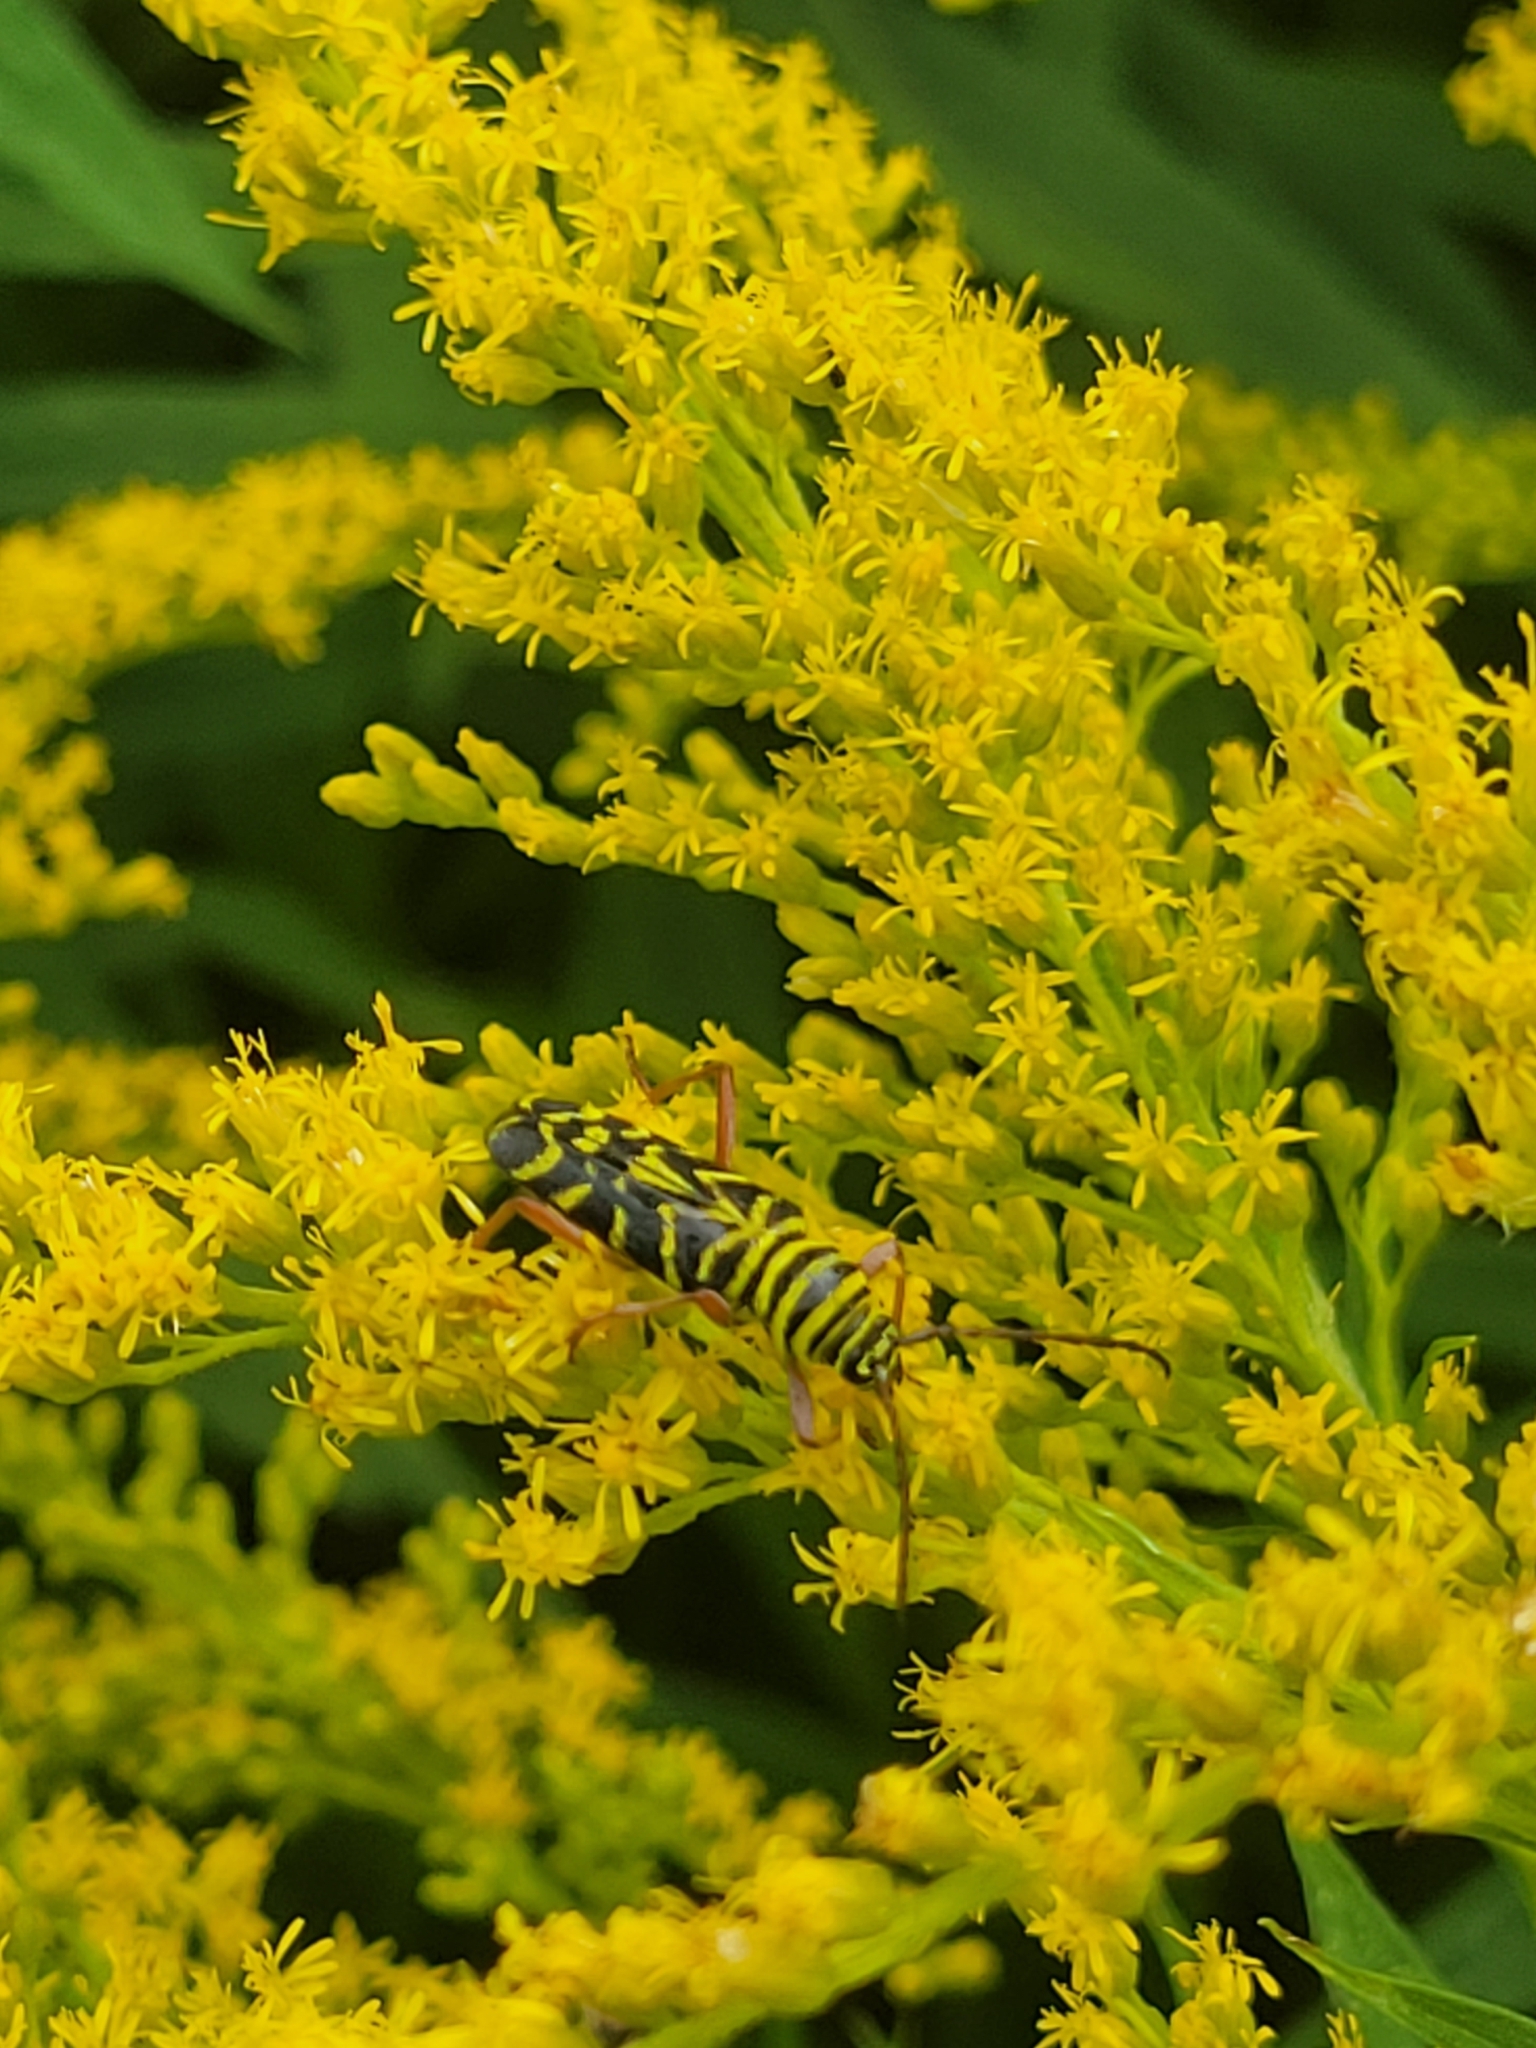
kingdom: Animalia
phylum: Arthropoda
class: Insecta
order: Coleoptera
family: Cerambycidae
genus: Megacyllene
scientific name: Megacyllene robiniae
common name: Locust borer
